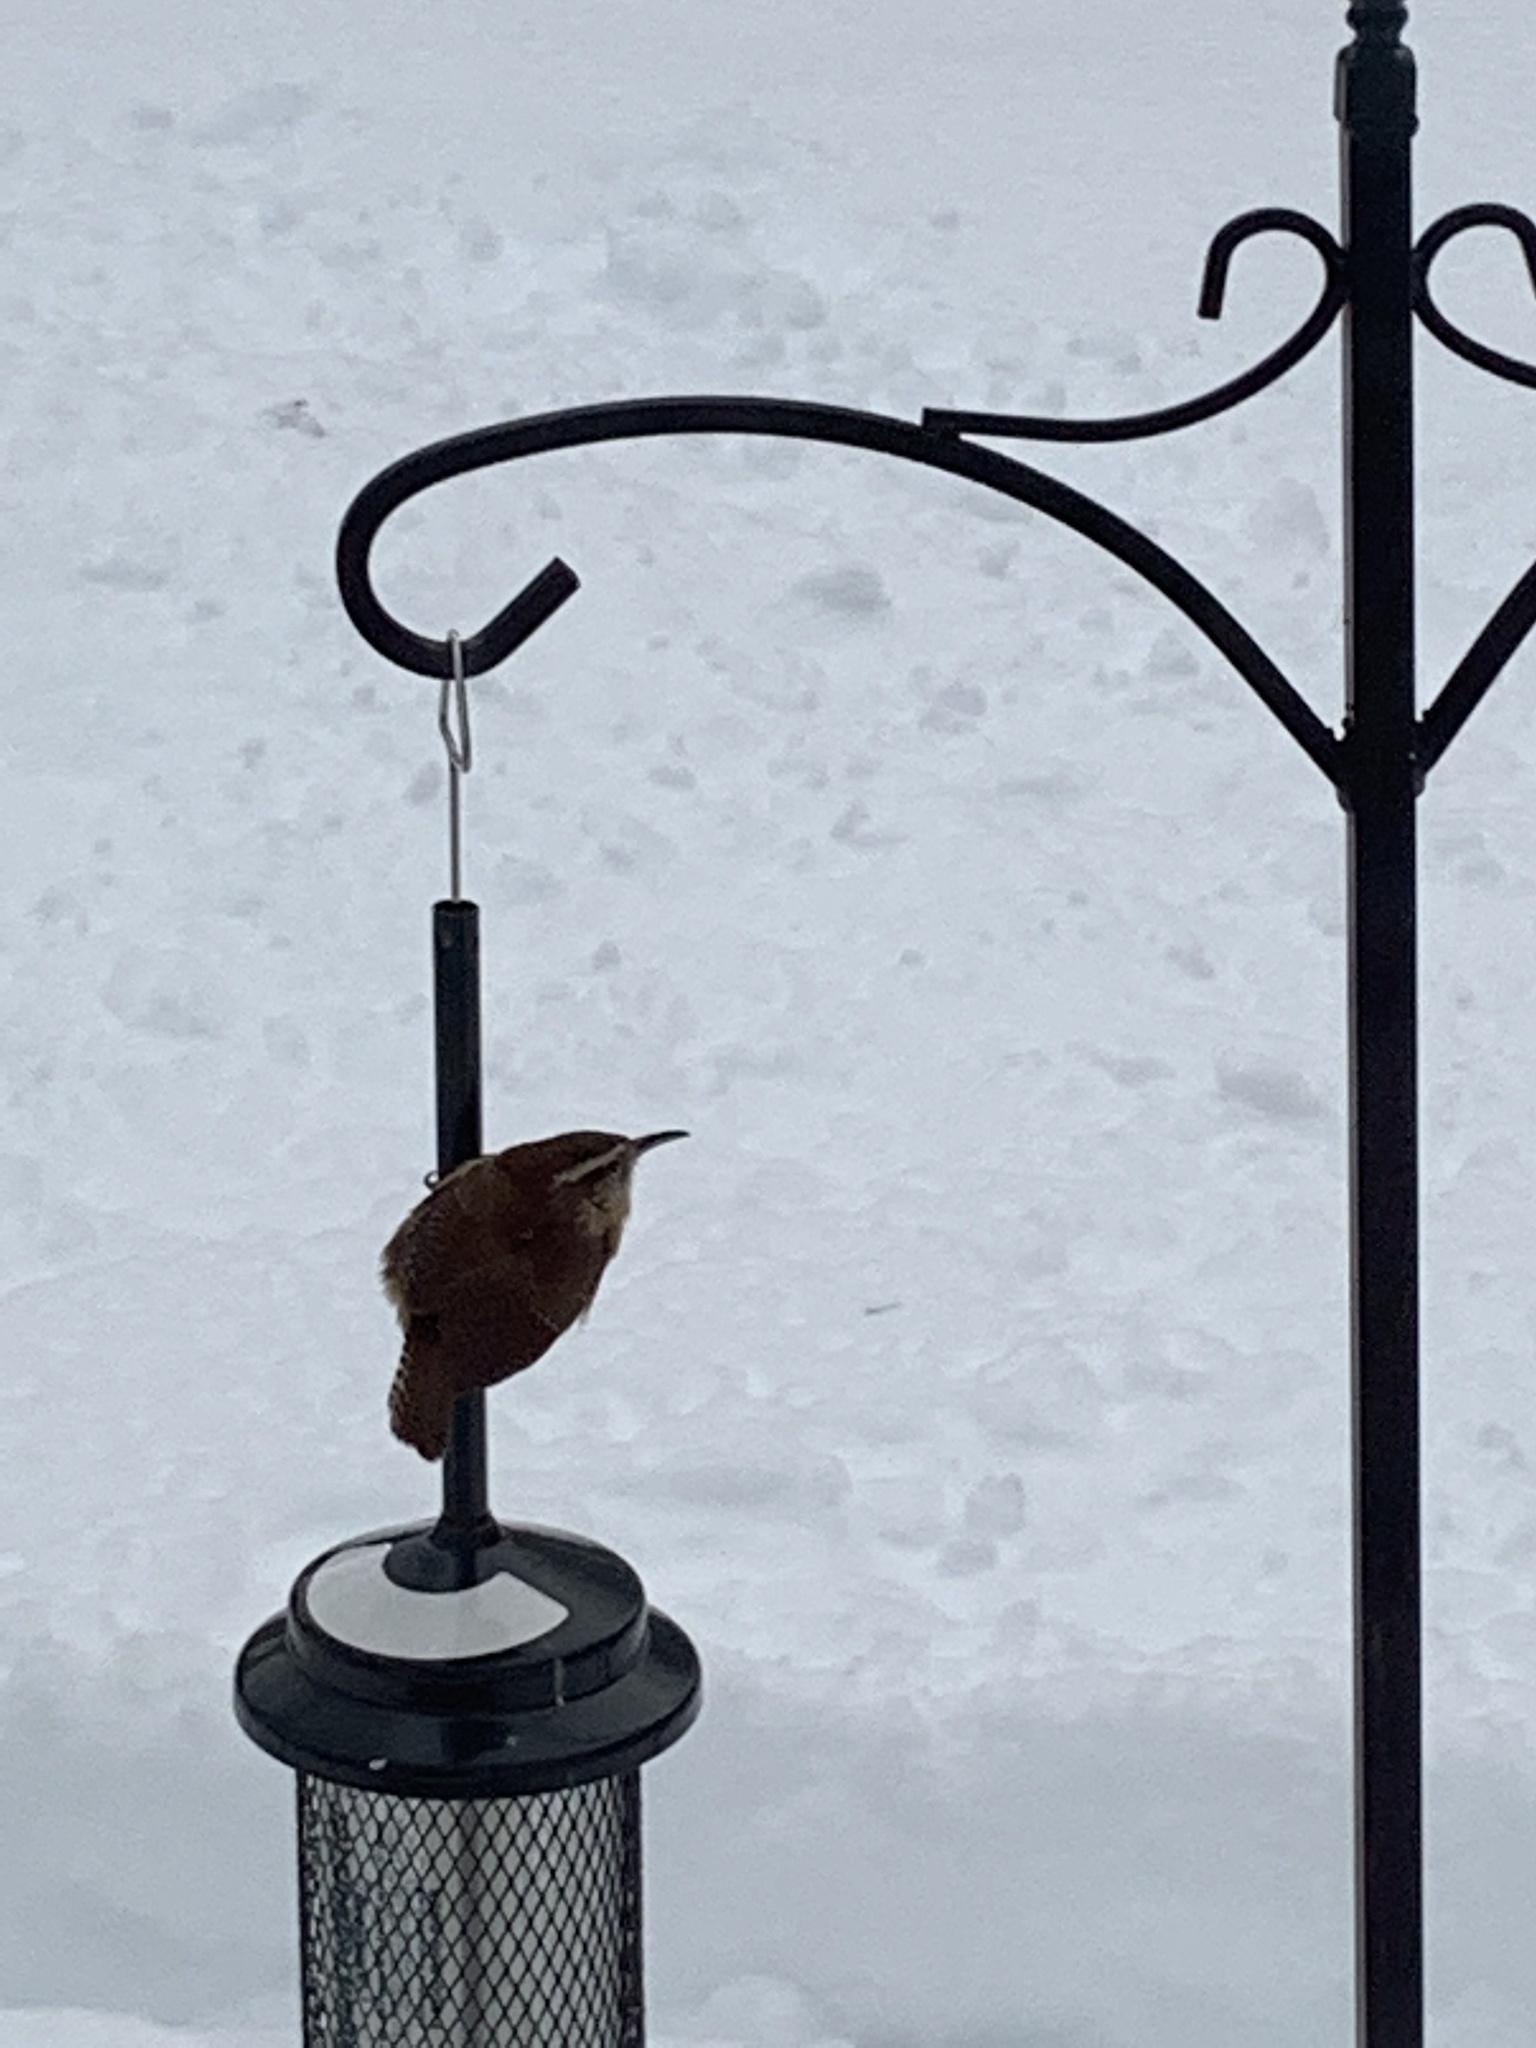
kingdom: Animalia
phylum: Chordata
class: Aves
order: Passeriformes
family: Troglodytidae
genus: Thryothorus
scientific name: Thryothorus ludovicianus
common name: Carolina wren
